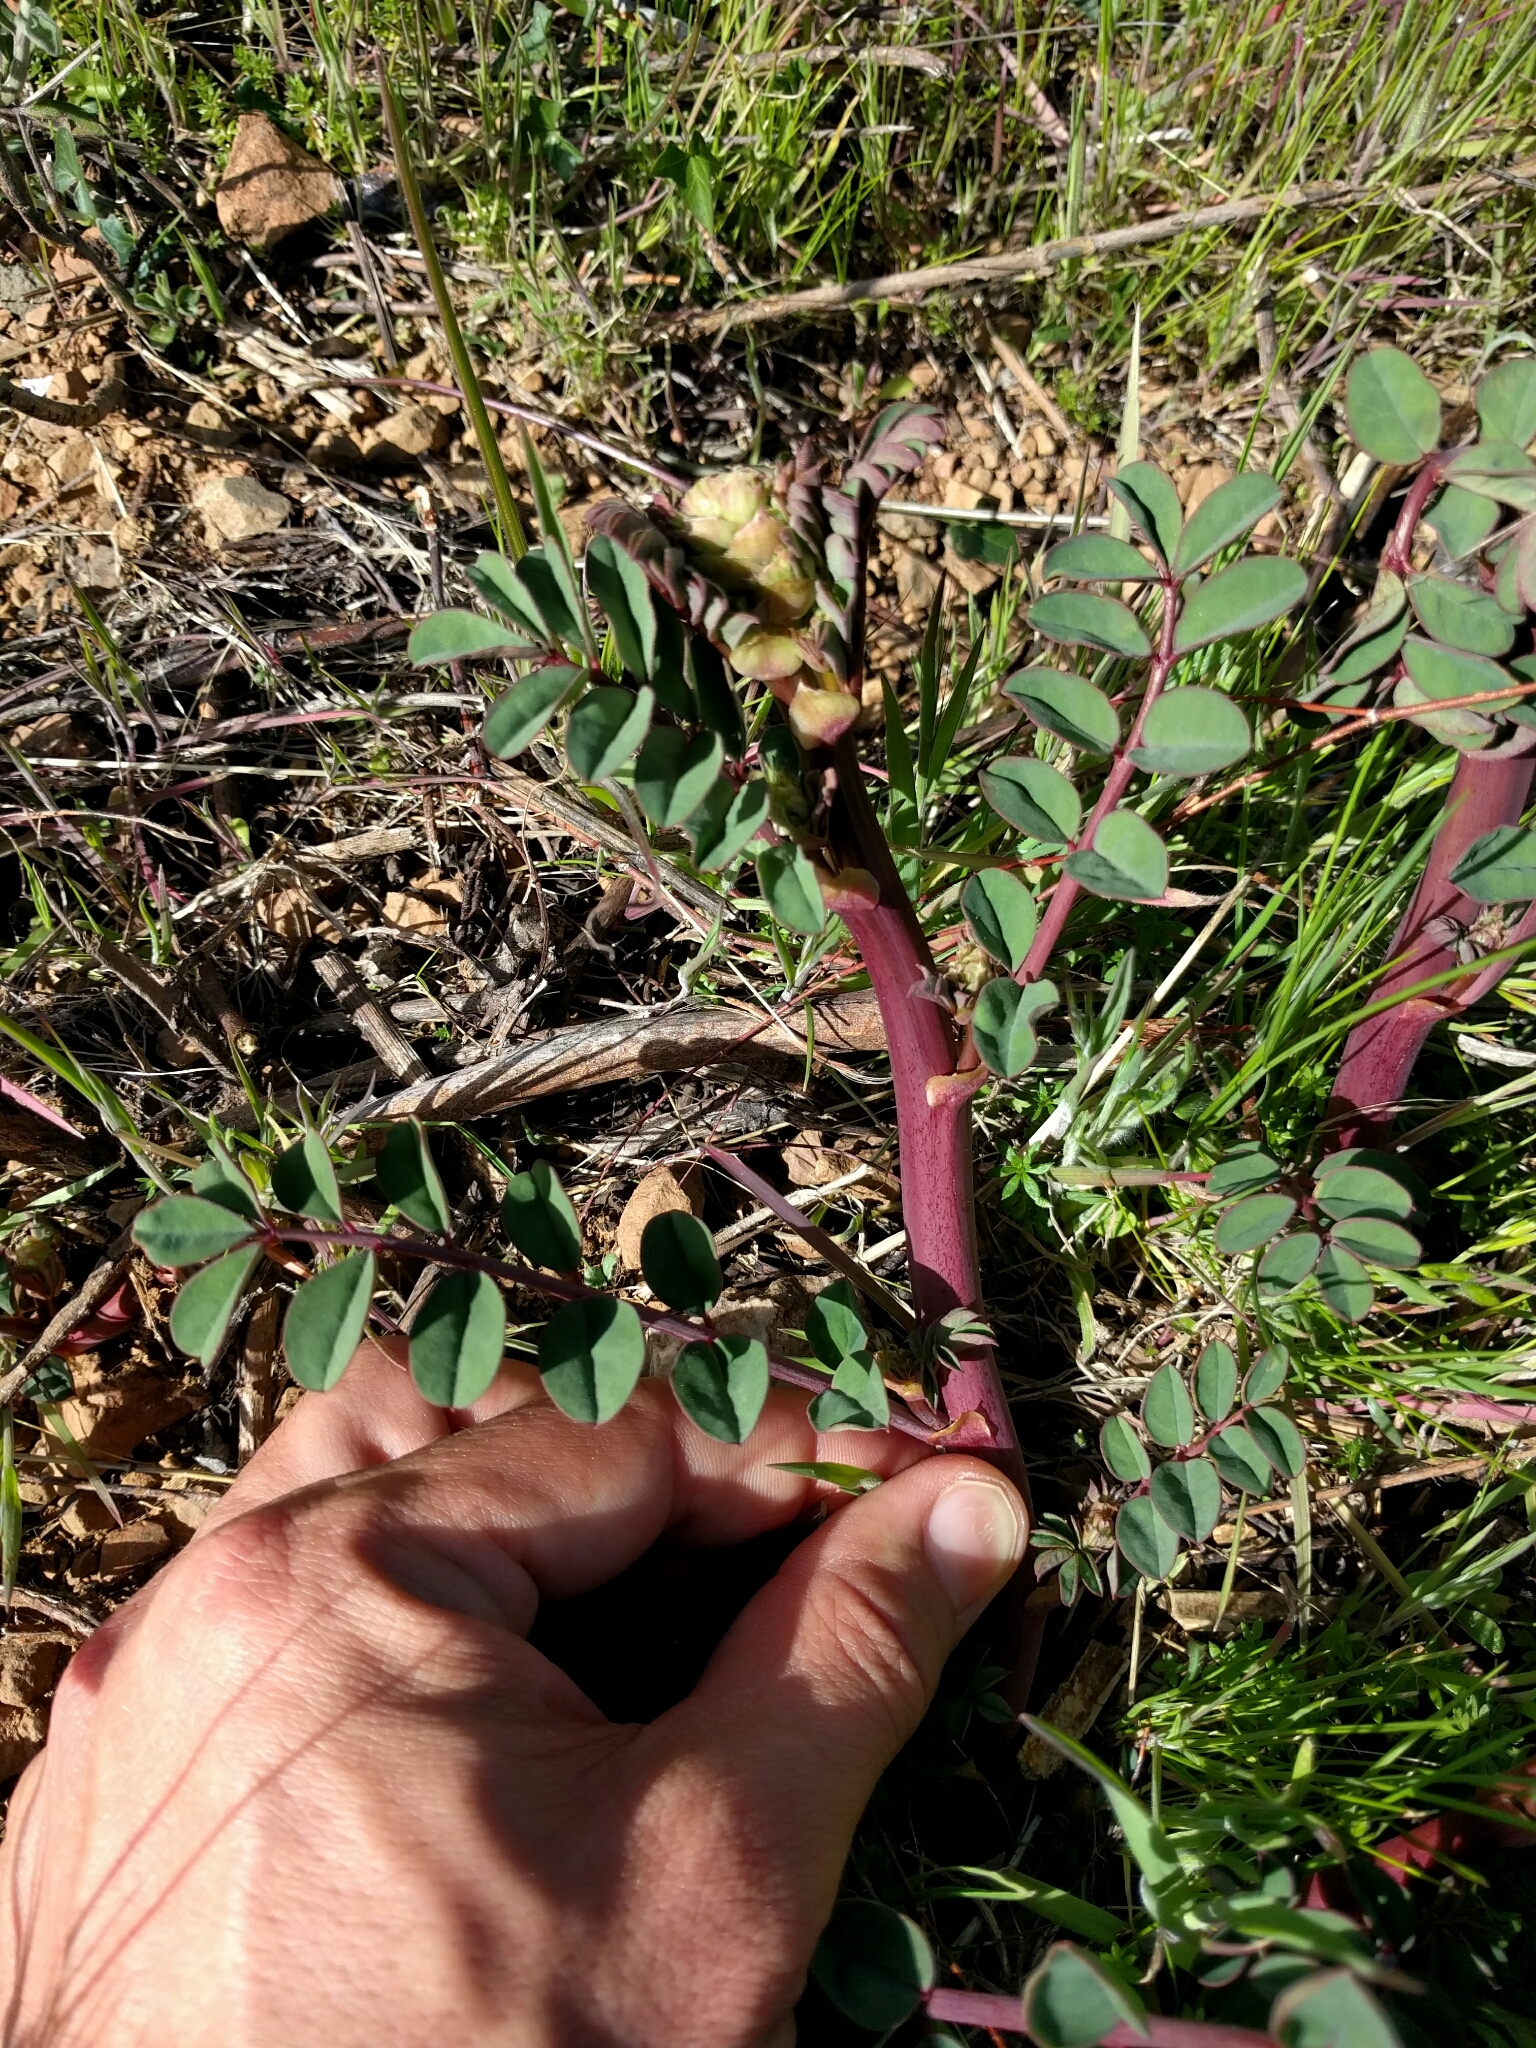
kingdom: Plantae
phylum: Tracheophyta
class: Magnoliopsida
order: Fabales
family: Fabaceae
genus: Hosackia
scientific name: Hosackia crassifolia
